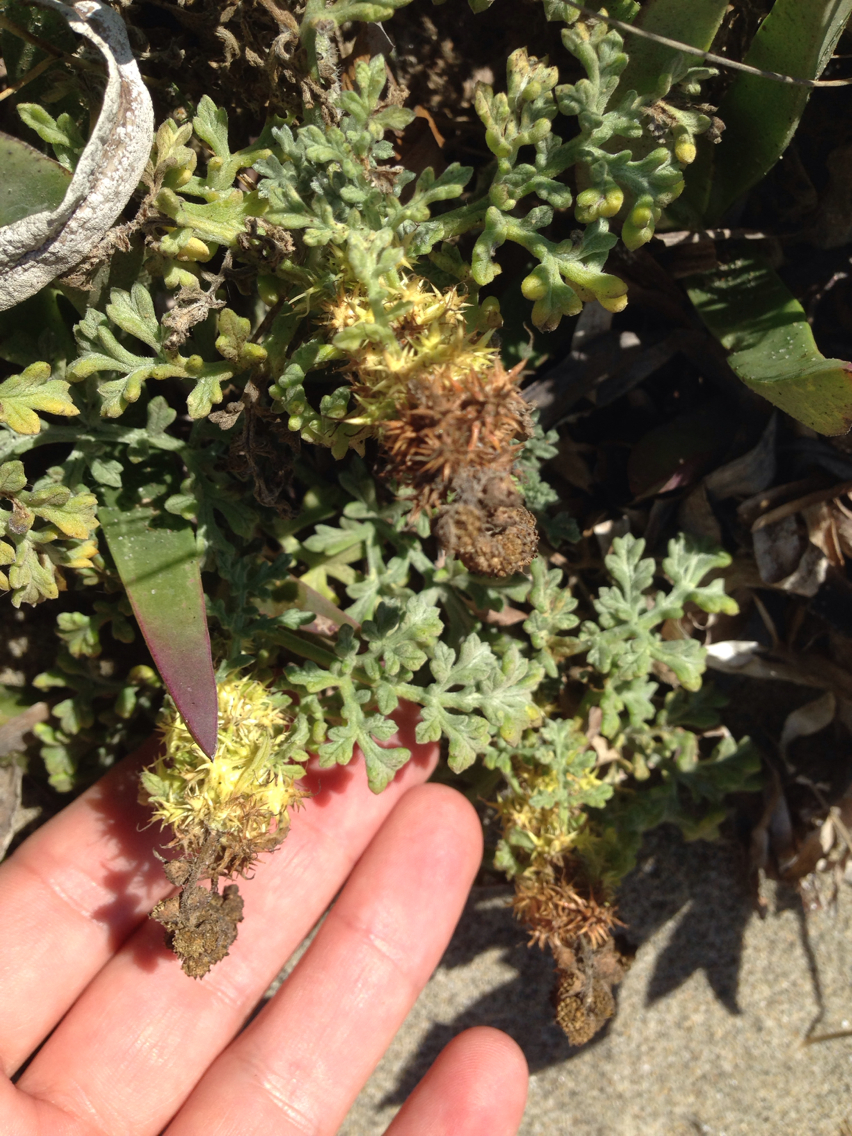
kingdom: Plantae
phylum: Tracheophyta
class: Magnoliopsida
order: Asterales
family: Asteraceae
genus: Ambrosia
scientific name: Ambrosia chamissonis
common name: Beachbur
